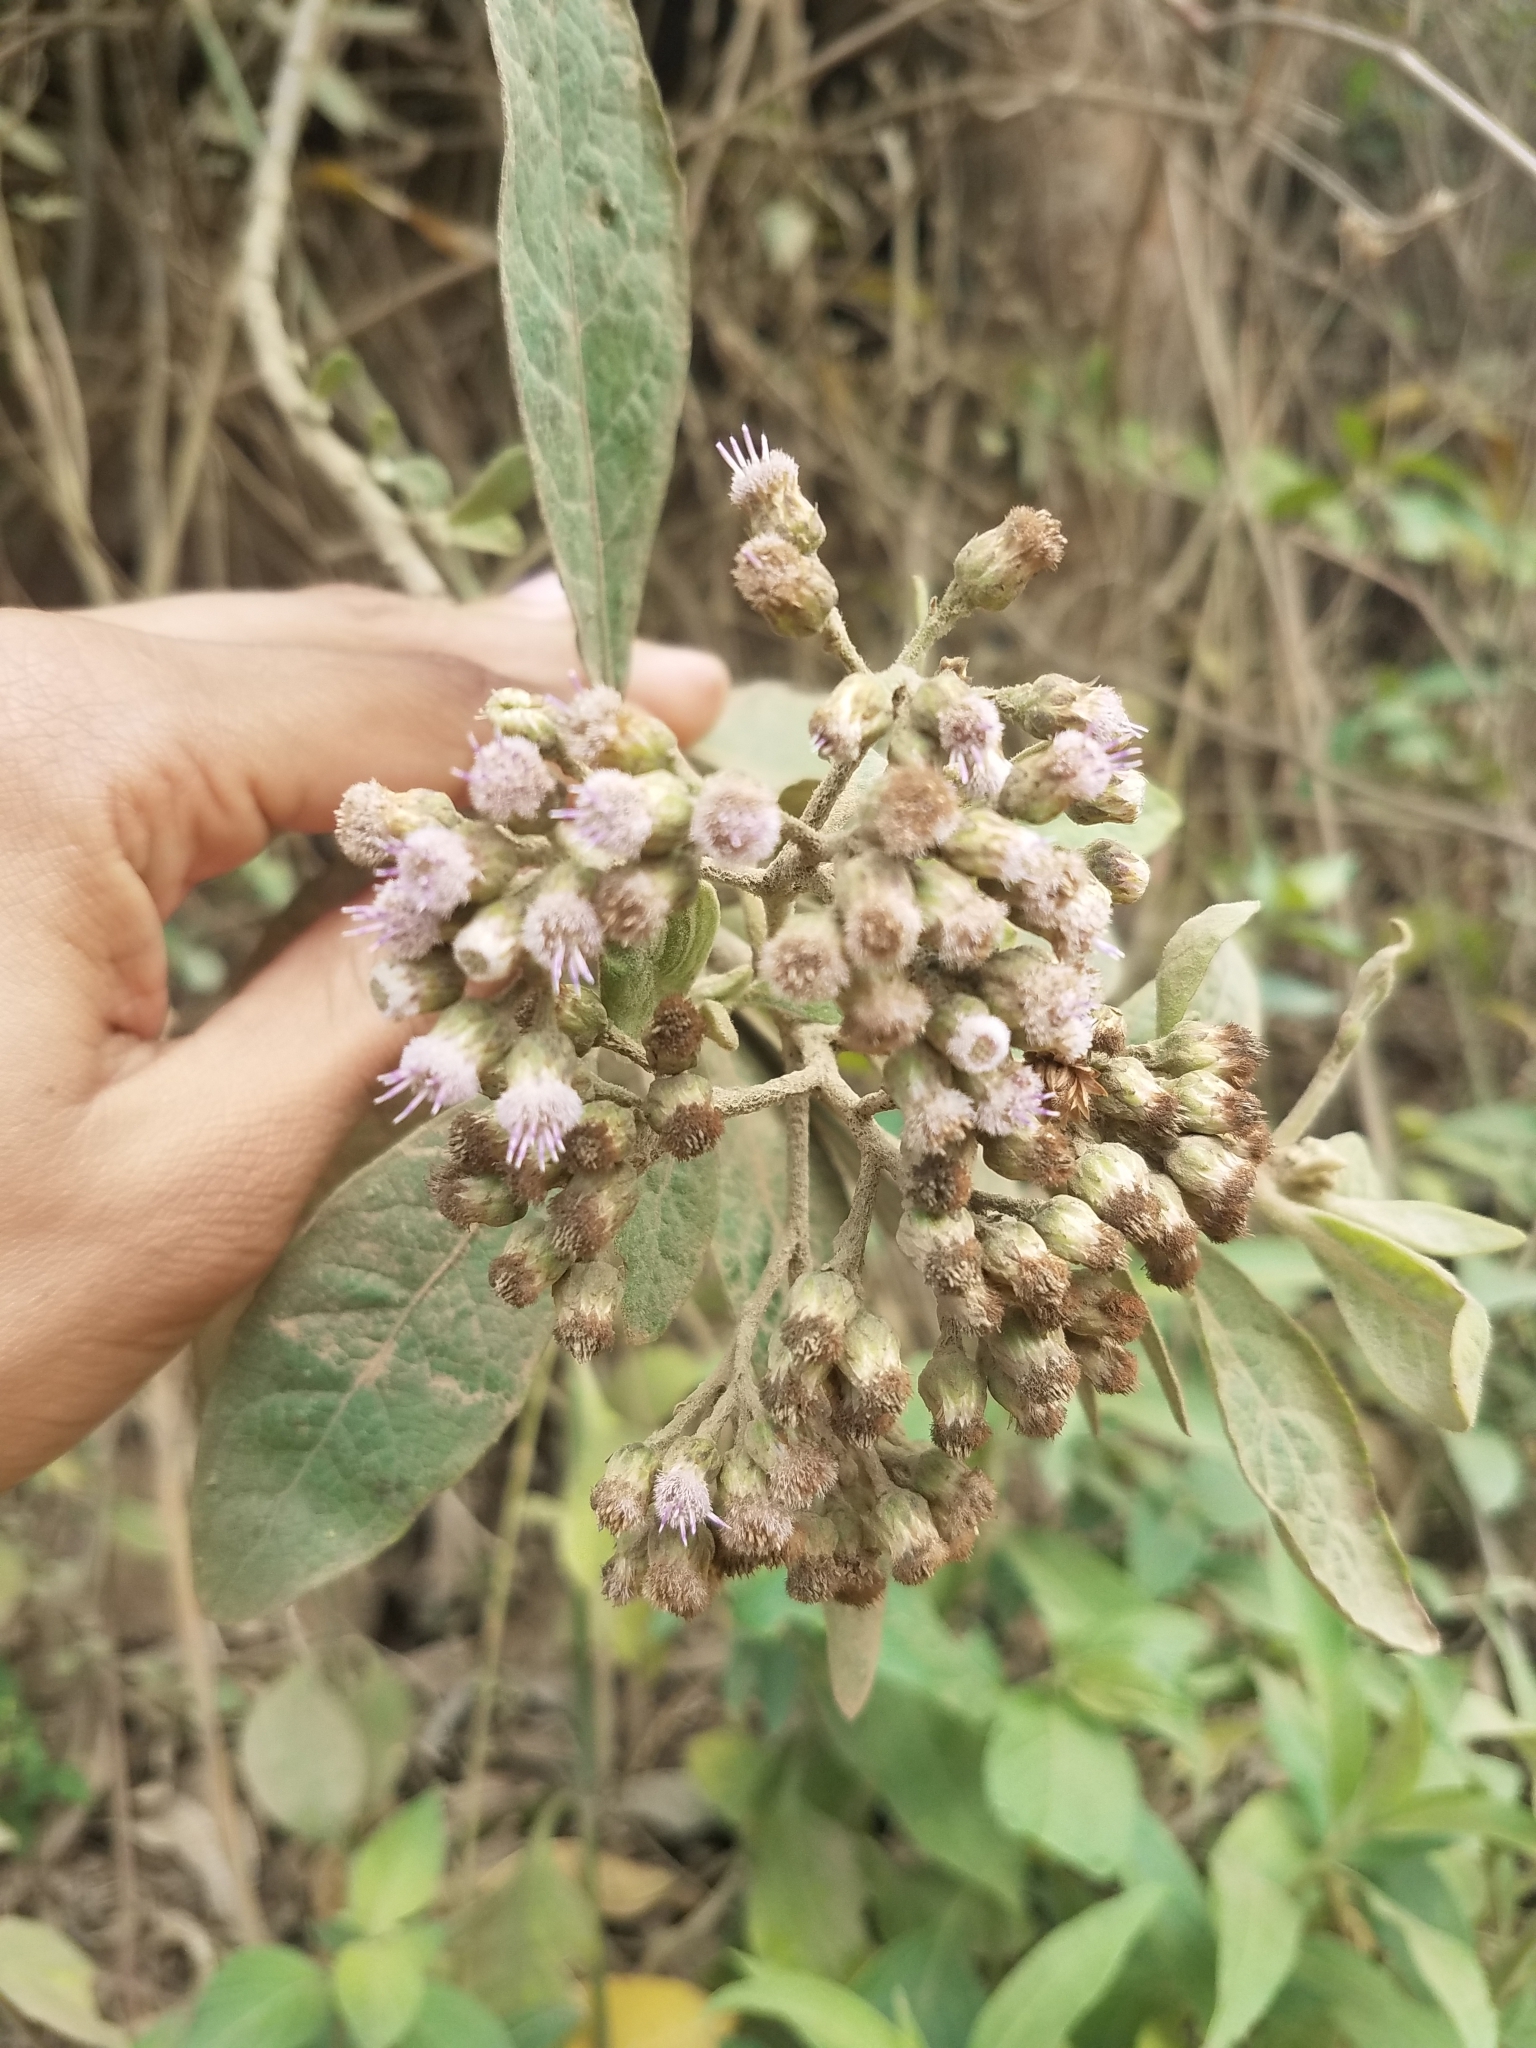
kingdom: Plantae
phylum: Tracheophyta
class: Magnoliopsida
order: Asterales
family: Asteraceae
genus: Pluchea
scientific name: Pluchea carolinensis
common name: Marsh fleabane
